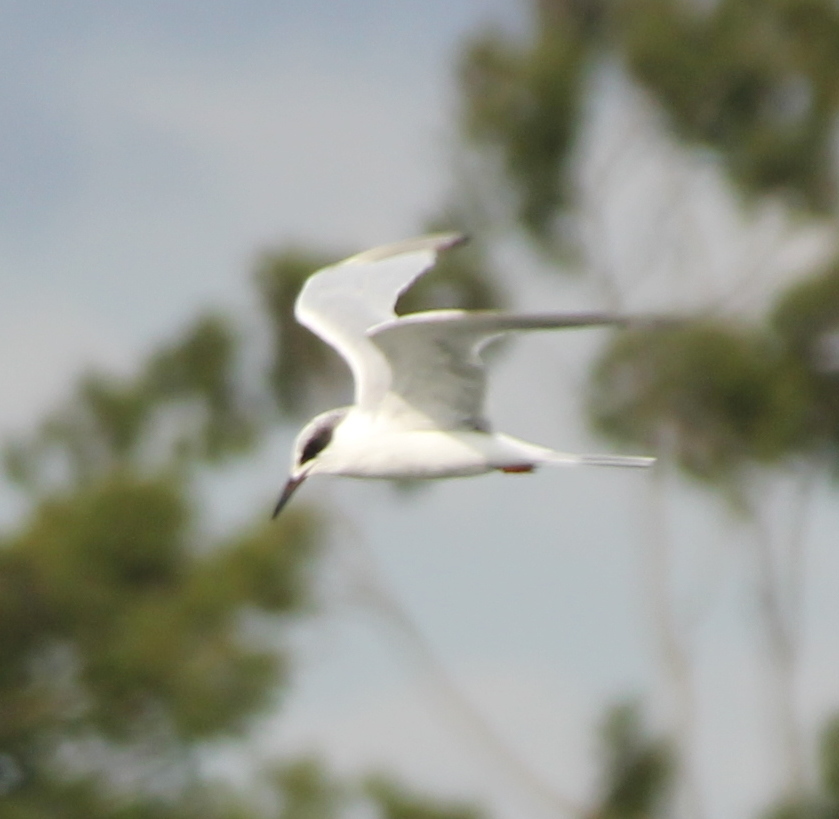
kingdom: Animalia
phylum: Chordata
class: Aves
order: Charadriiformes
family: Laridae
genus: Sterna
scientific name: Sterna forsteri
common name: Forster's tern
